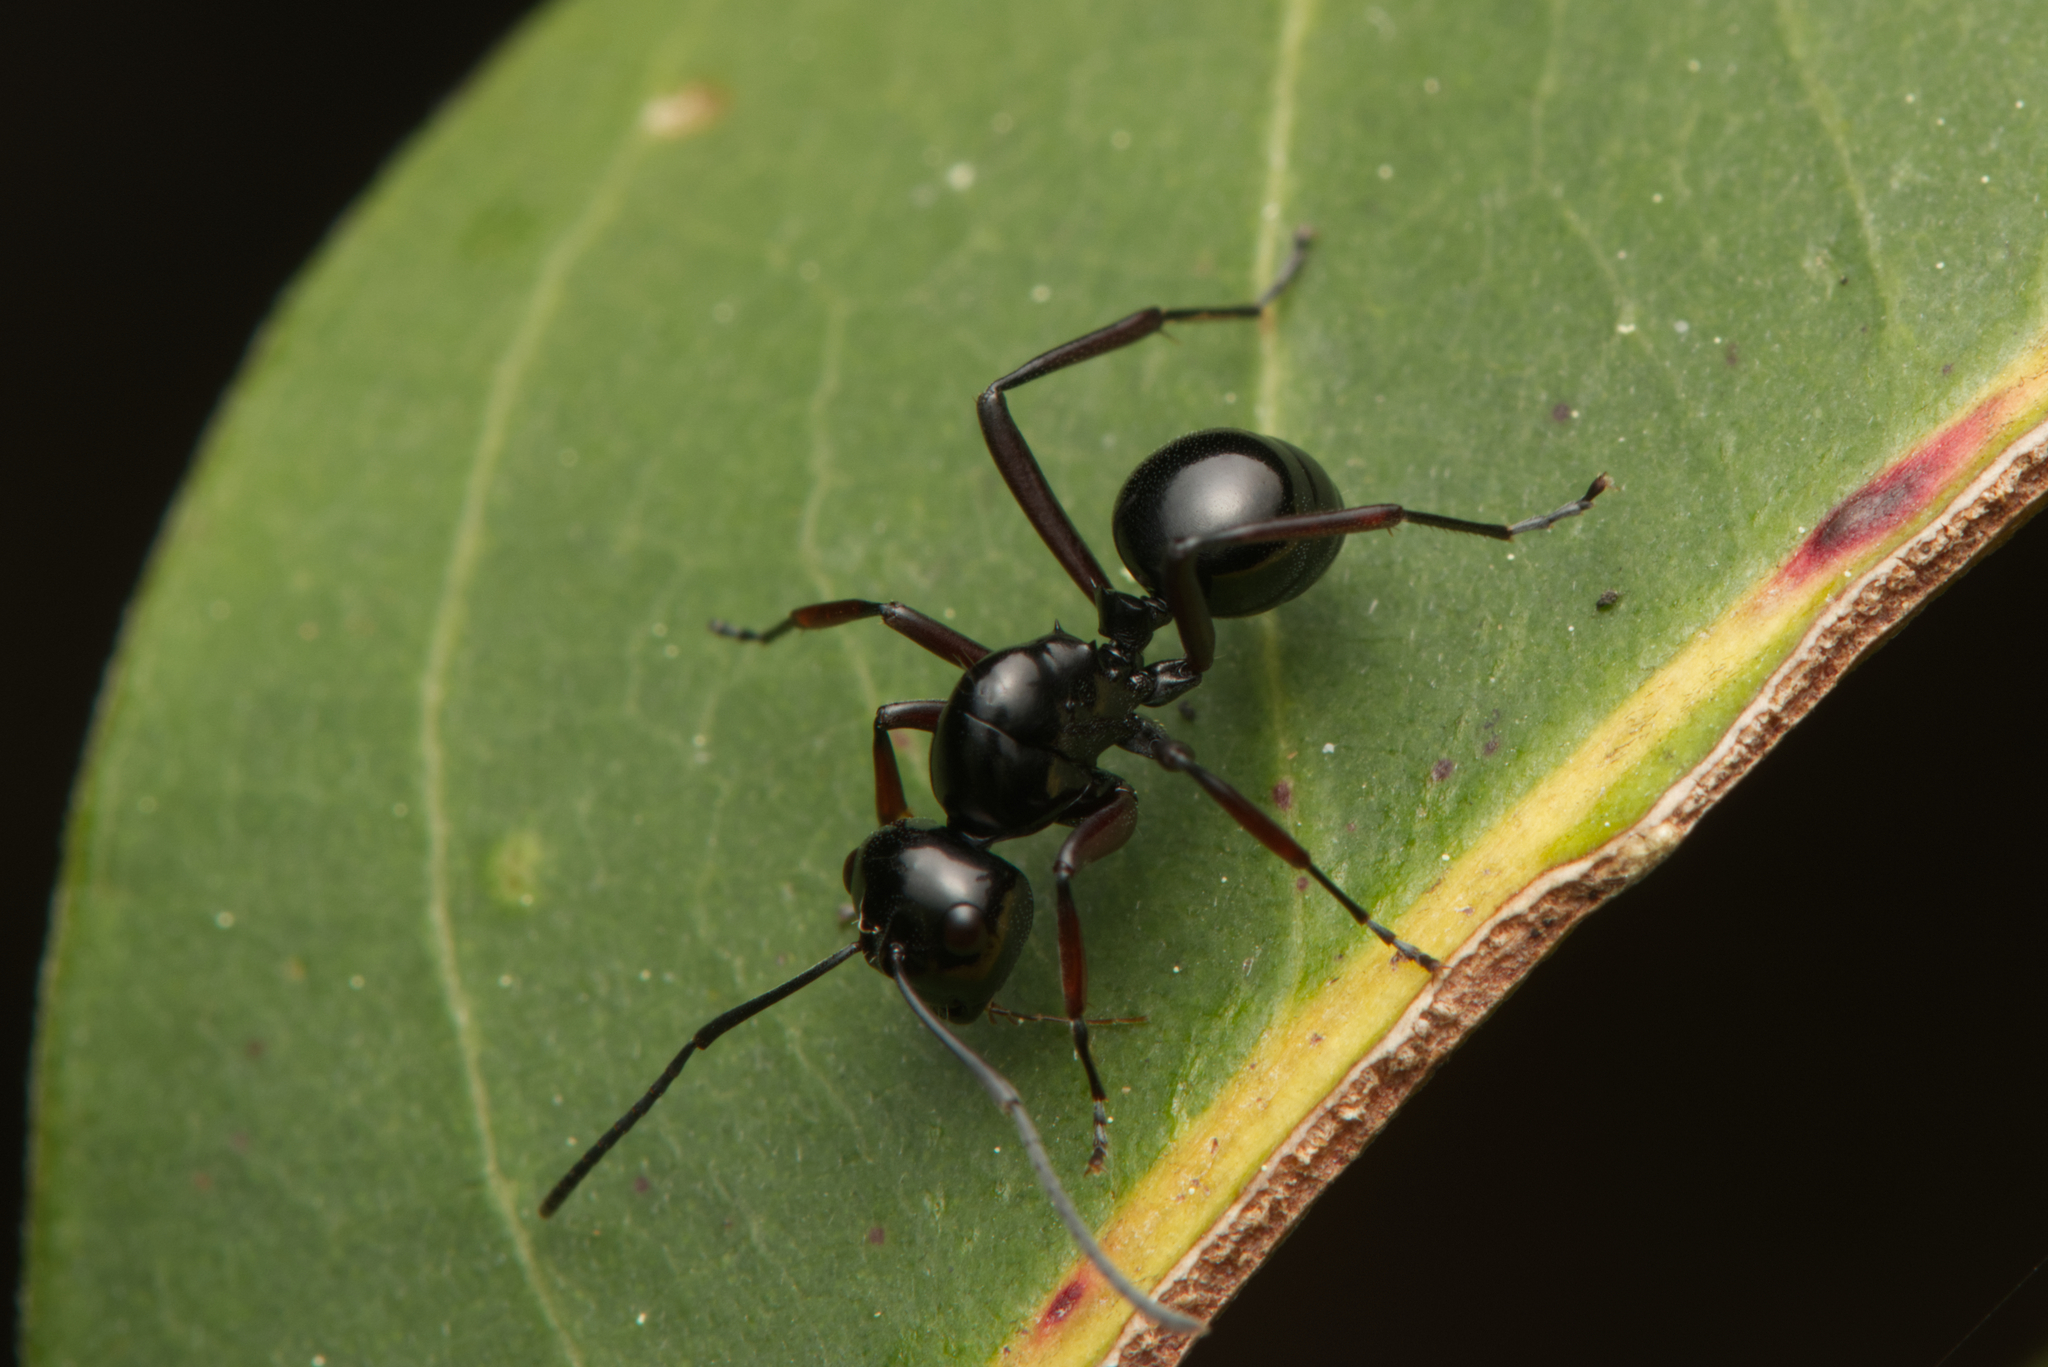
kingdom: Animalia
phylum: Arthropoda
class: Insecta
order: Hymenoptera
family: Formicidae
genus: Polyrhachis
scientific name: Polyrhachis australis
